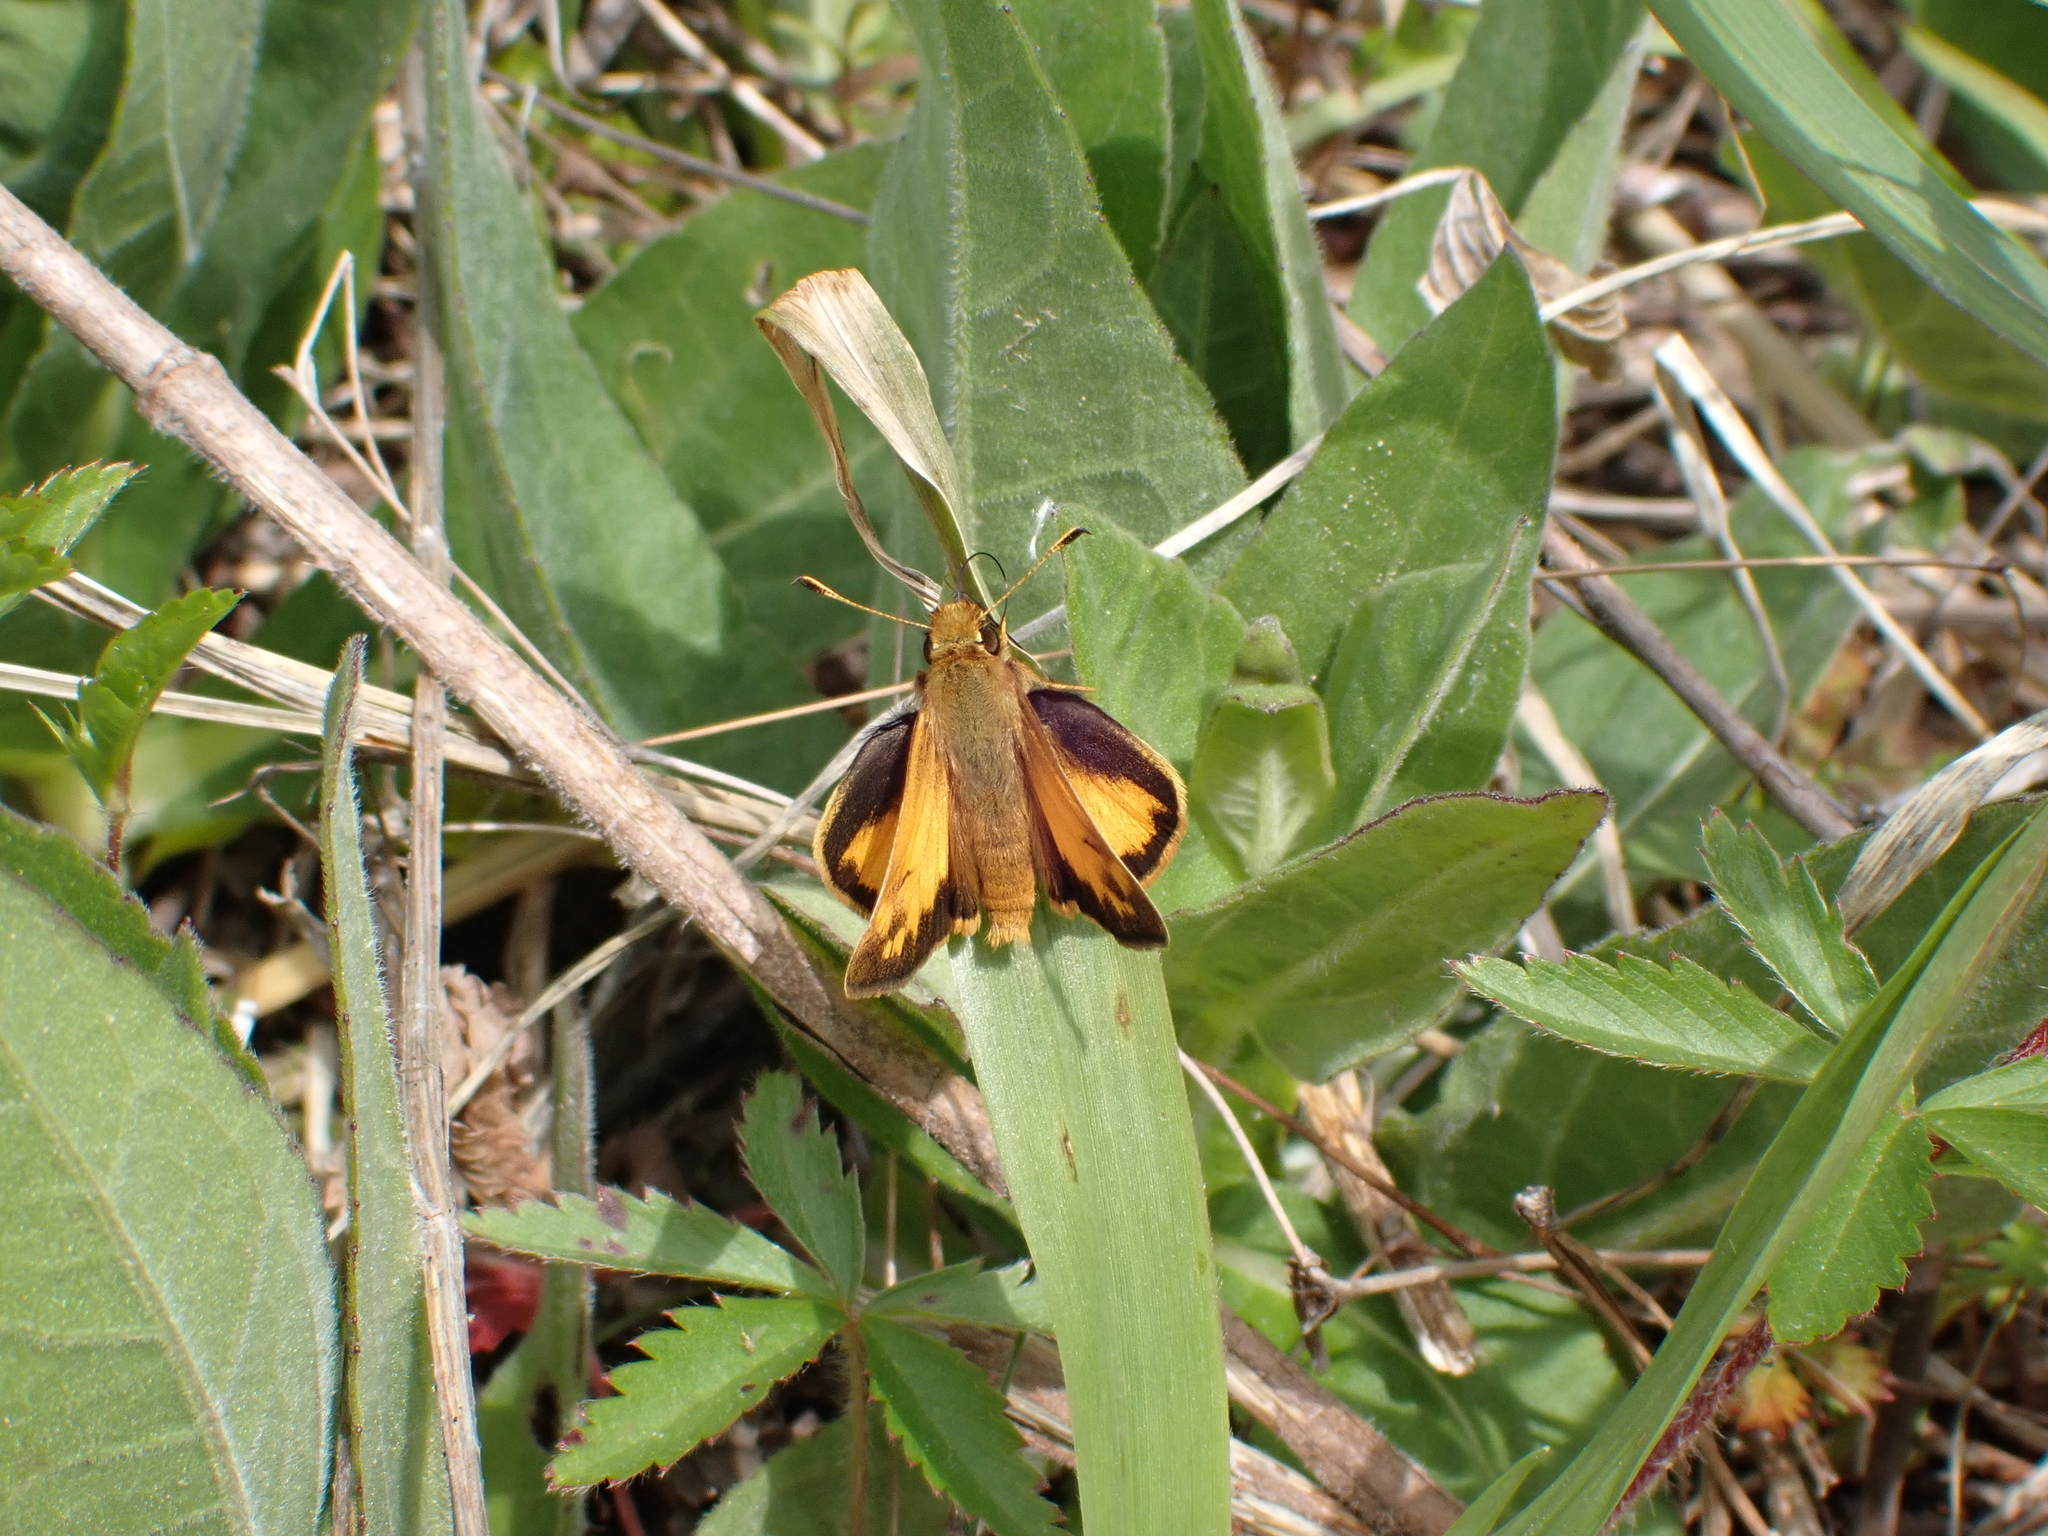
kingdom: Animalia
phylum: Arthropoda
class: Insecta
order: Lepidoptera
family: Hesperiidae
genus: Lon
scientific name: Lon zabulon
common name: Zabulon skipper
